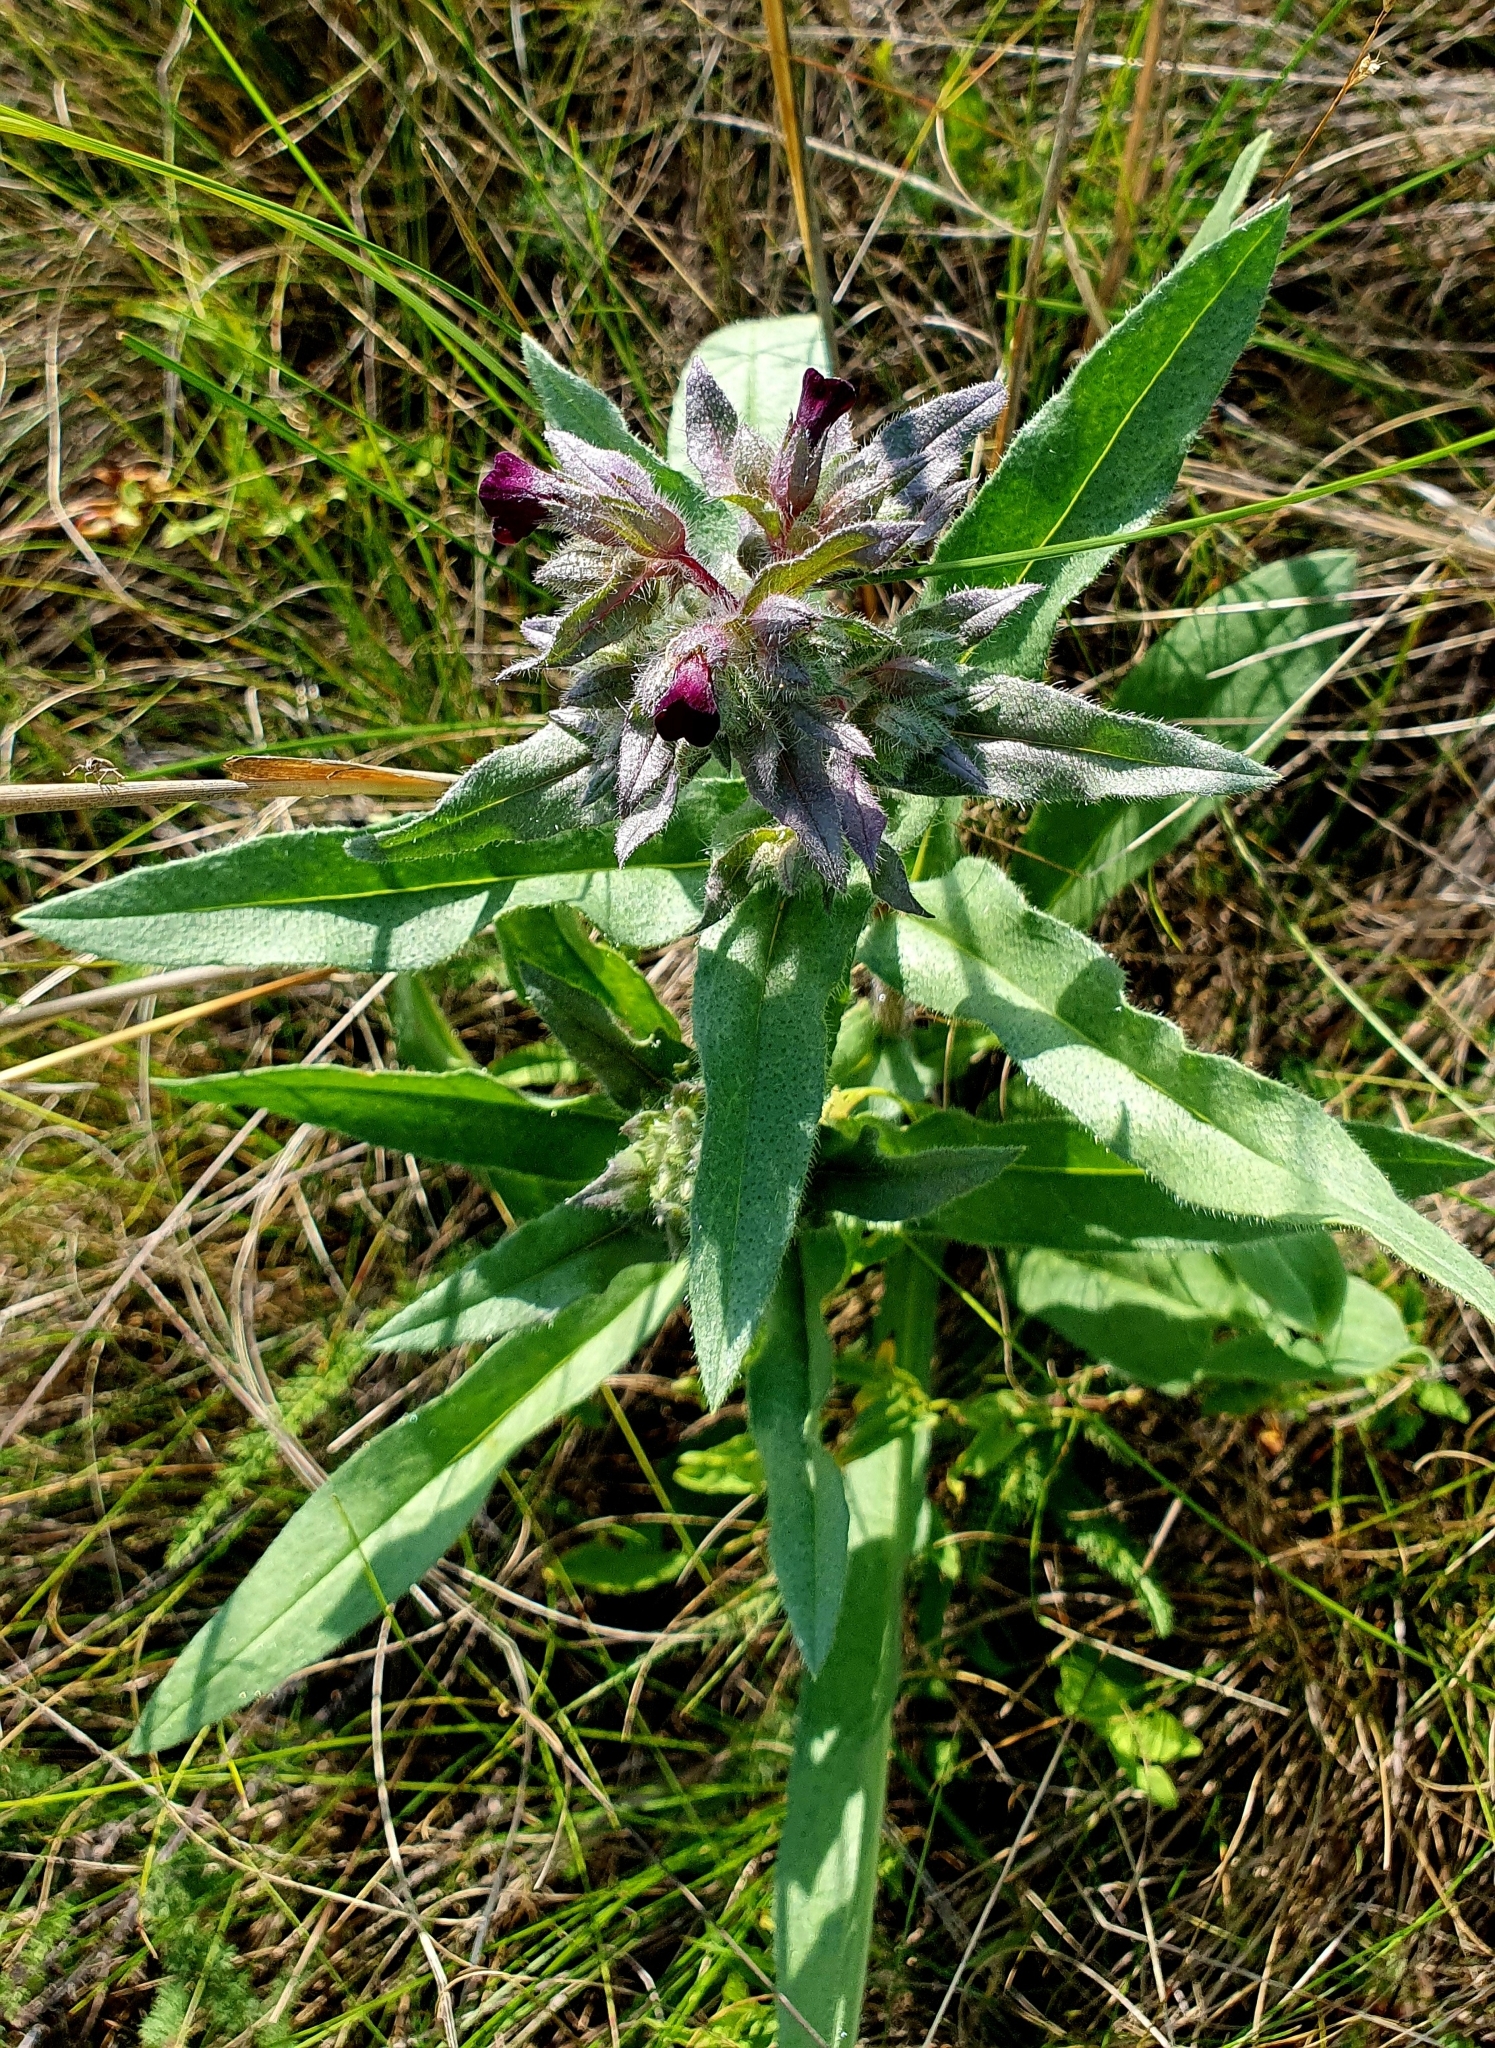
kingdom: Plantae
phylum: Tracheophyta
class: Magnoliopsida
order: Boraginales
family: Boraginaceae
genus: Nonea
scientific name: Nonea pulla
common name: Brown nonea
